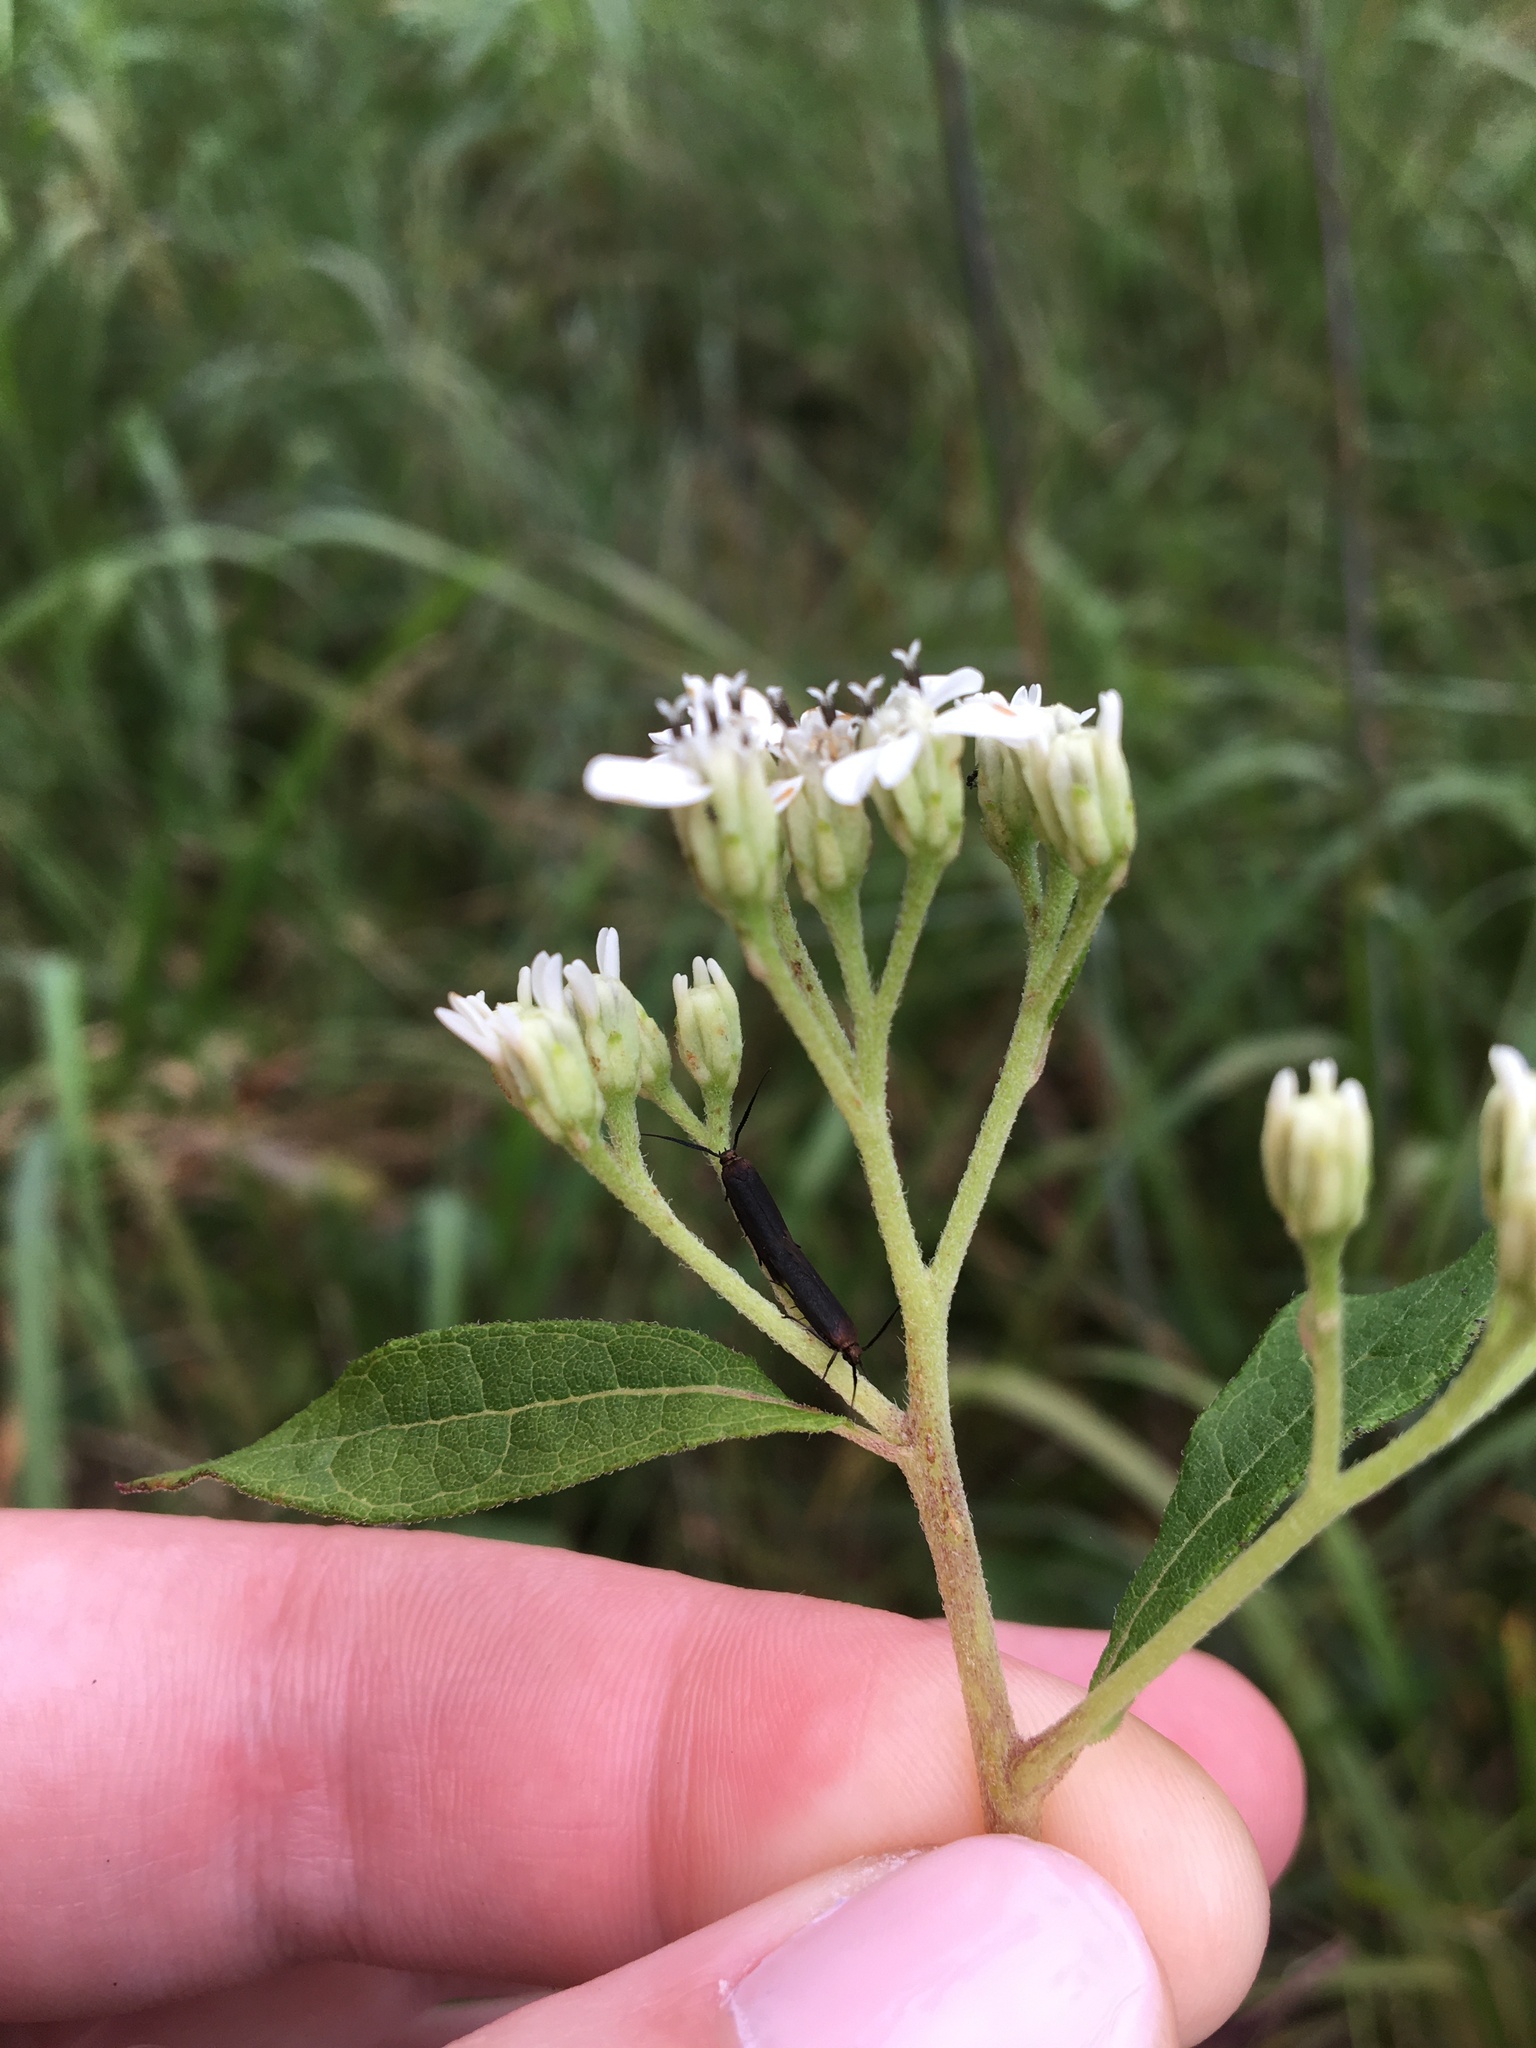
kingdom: Plantae
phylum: Tracheophyta
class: Magnoliopsida
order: Asterales
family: Asteraceae
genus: Verbesina
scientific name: Verbesina virginica
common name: Frostweed
